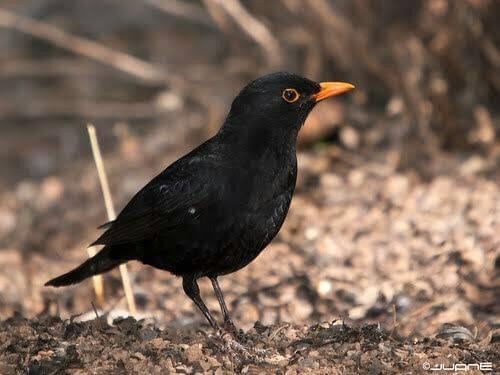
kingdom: Animalia
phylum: Chordata
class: Aves
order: Passeriformes
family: Turdidae
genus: Turdus
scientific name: Turdus merula
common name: Common blackbird
